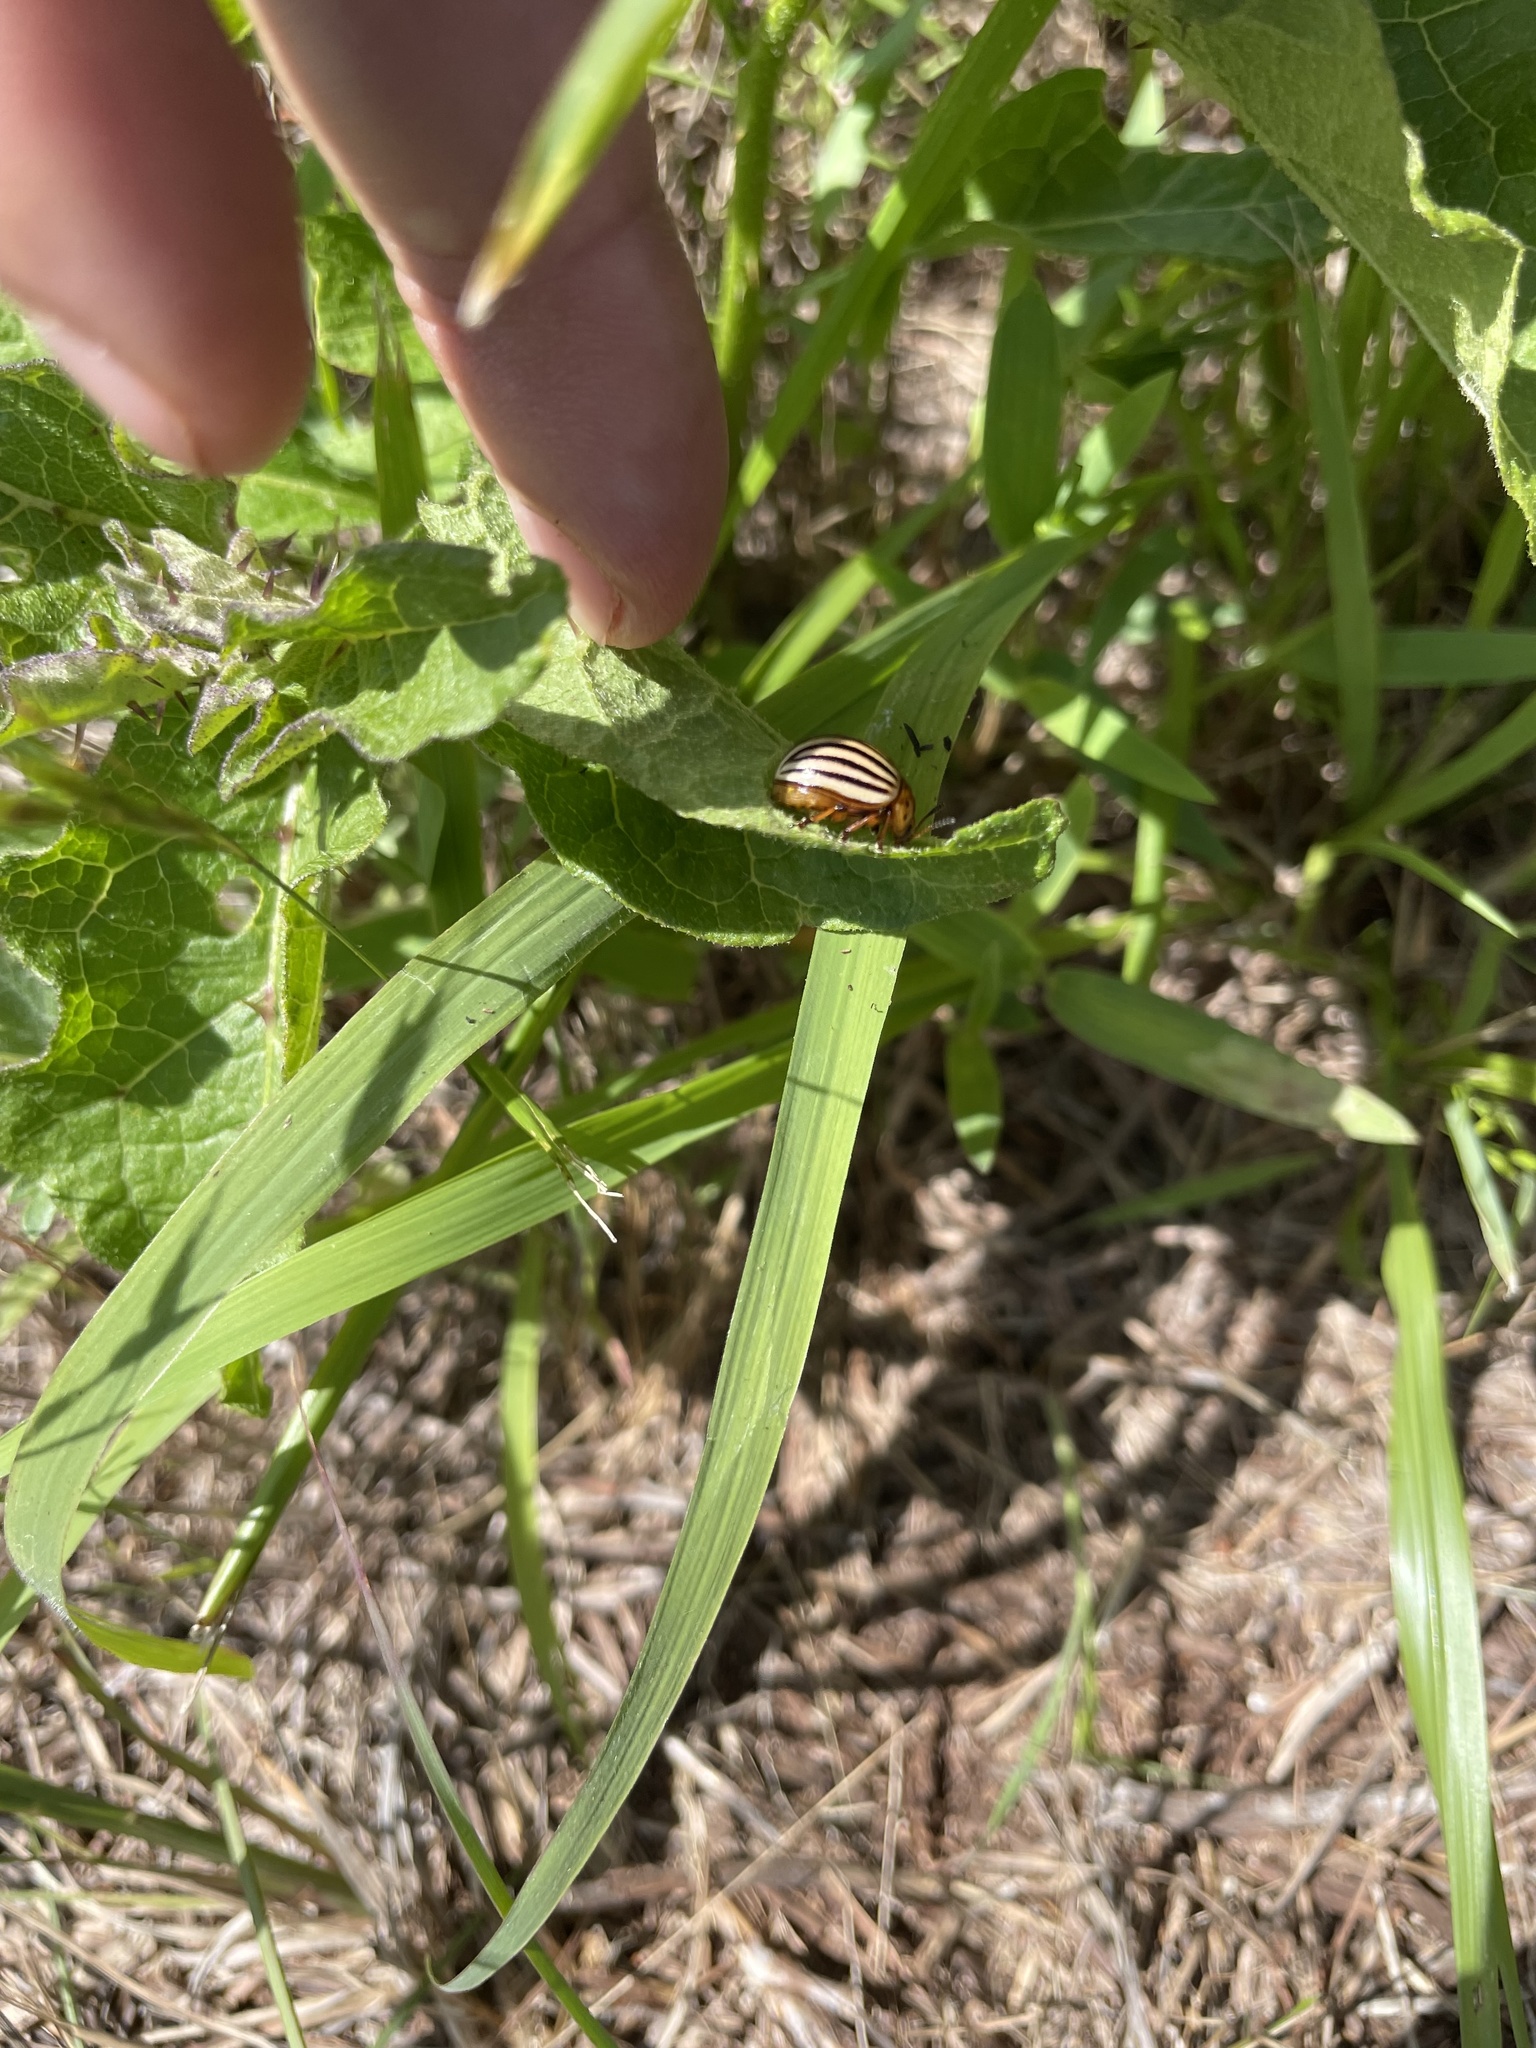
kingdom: Animalia
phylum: Arthropoda
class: Insecta
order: Coleoptera
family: Chrysomelidae
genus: Leptinotarsa
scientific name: Leptinotarsa decemlineata
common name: Colorado potato beetle
